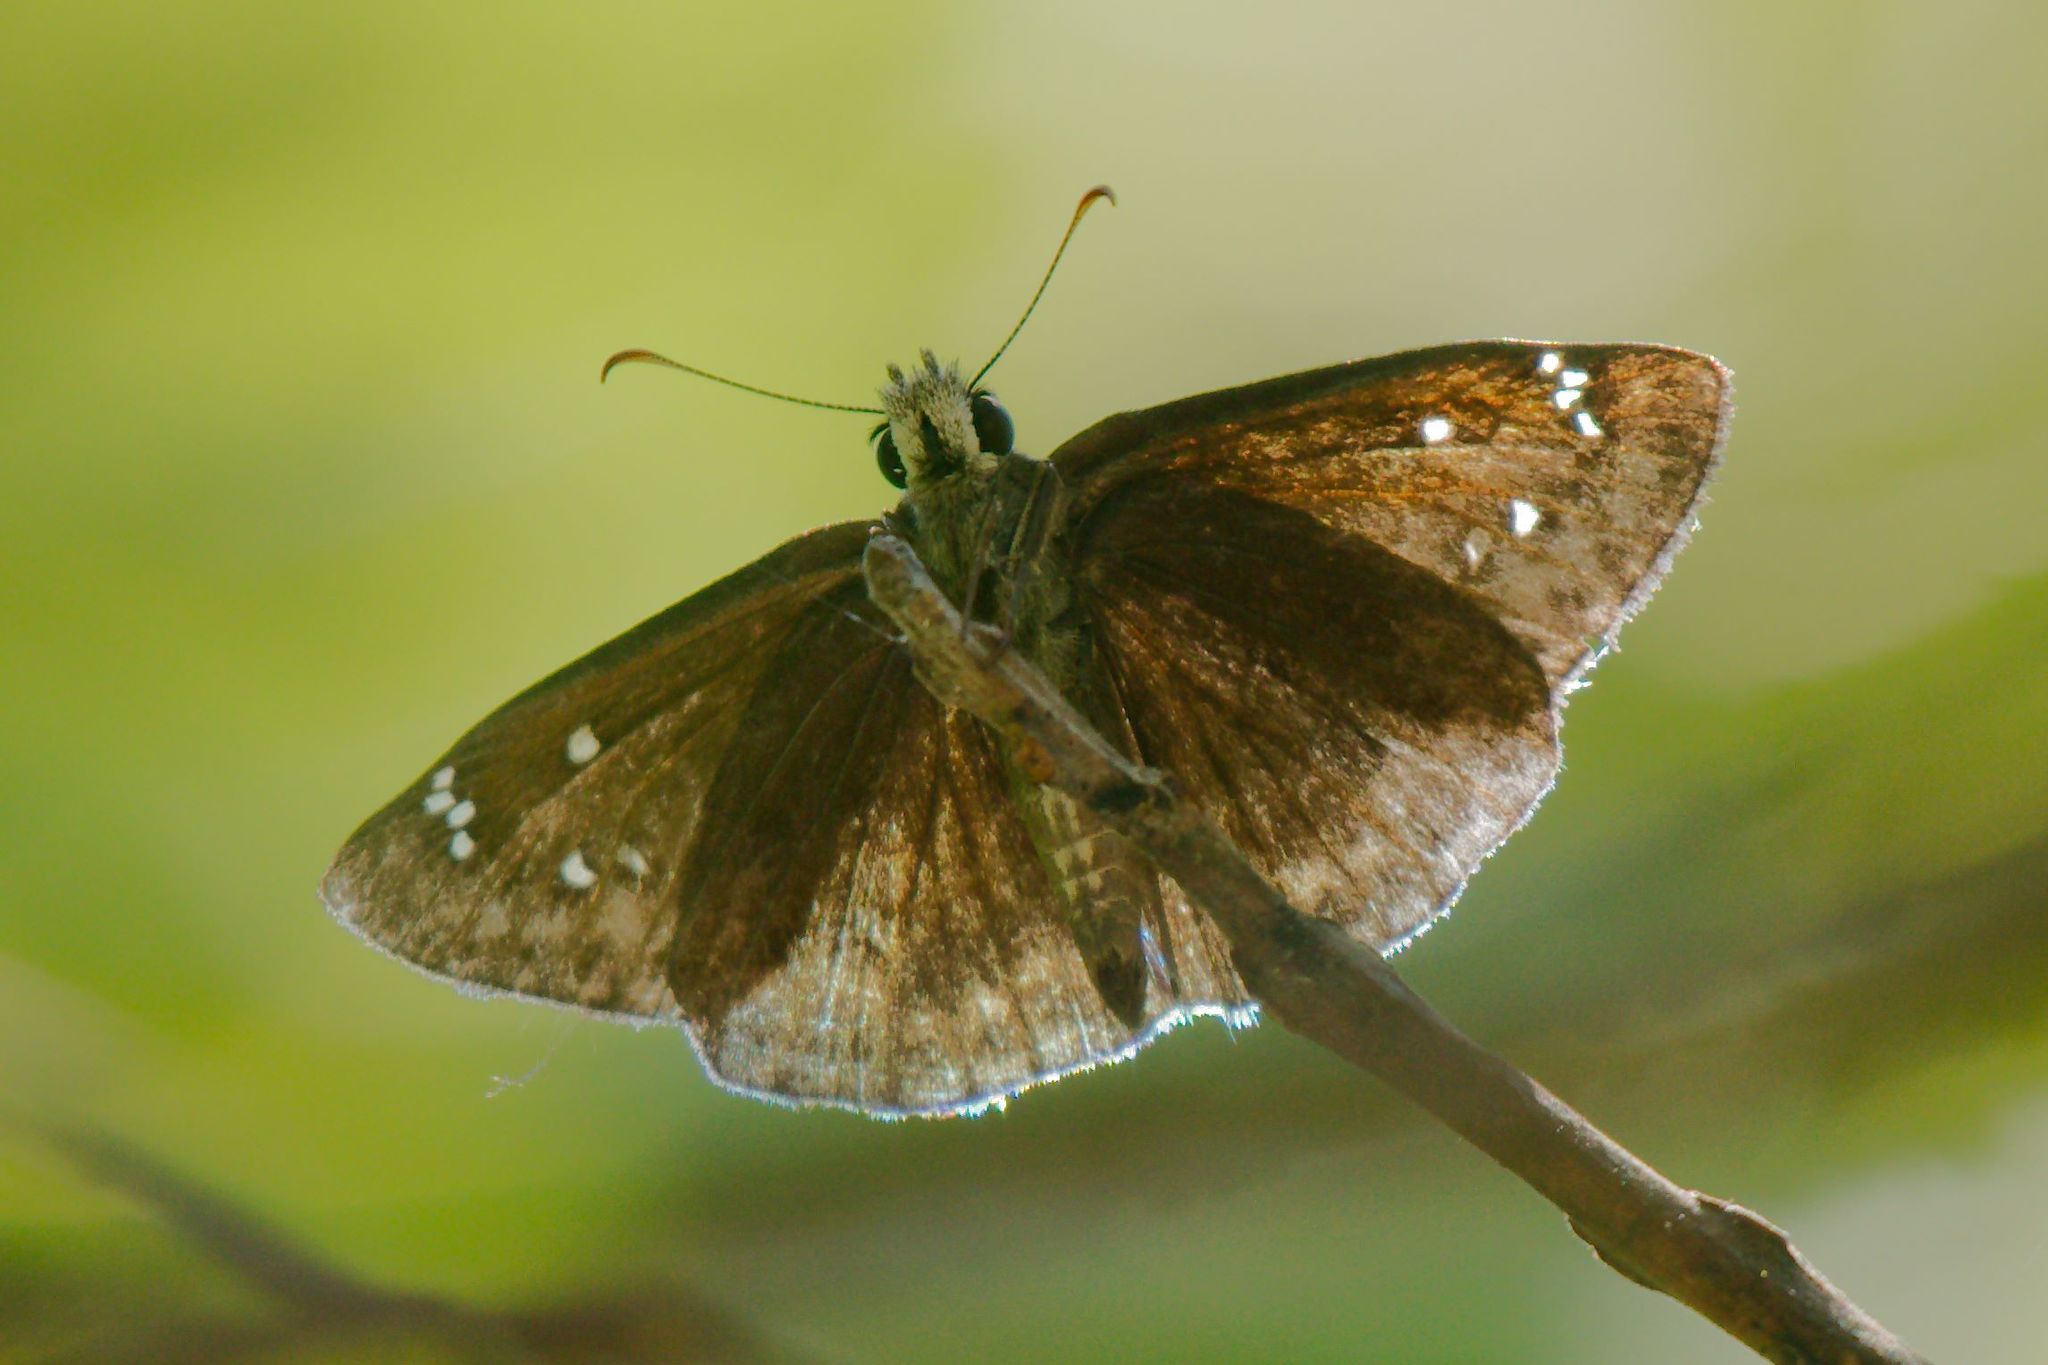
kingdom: Animalia
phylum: Arthropoda
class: Insecta
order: Lepidoptera
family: Hesperiidae
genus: Erynnis
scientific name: Erynnis horatius
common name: Horace's duskywing
